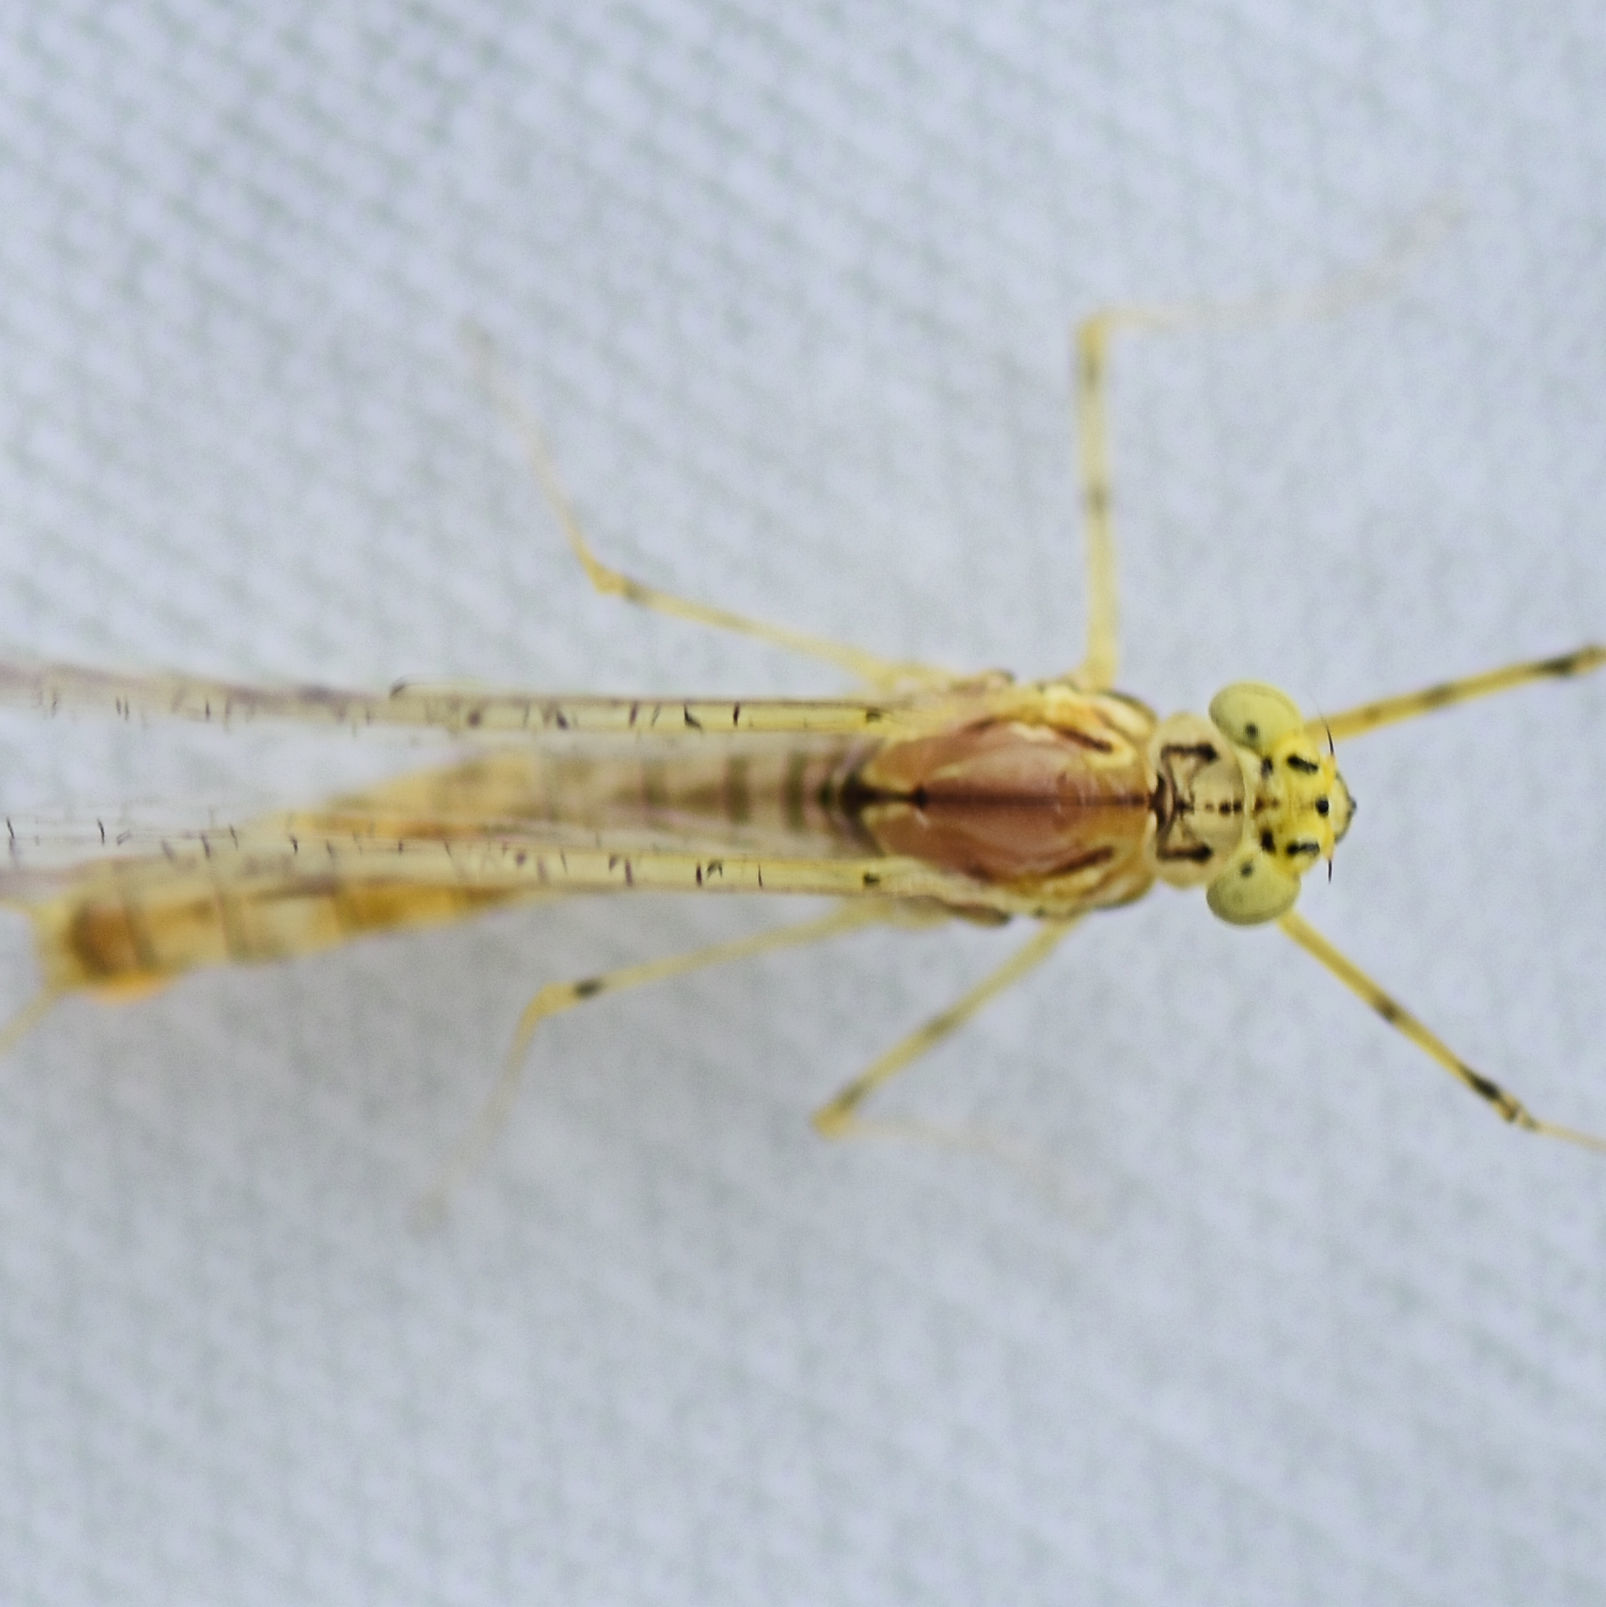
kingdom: Animalia
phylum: Arthropoda
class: Insecta
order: Ephemeroptera
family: Heptageniidae
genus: Stenacron
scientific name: Stenacron interpunctatum
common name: Orange cahill
